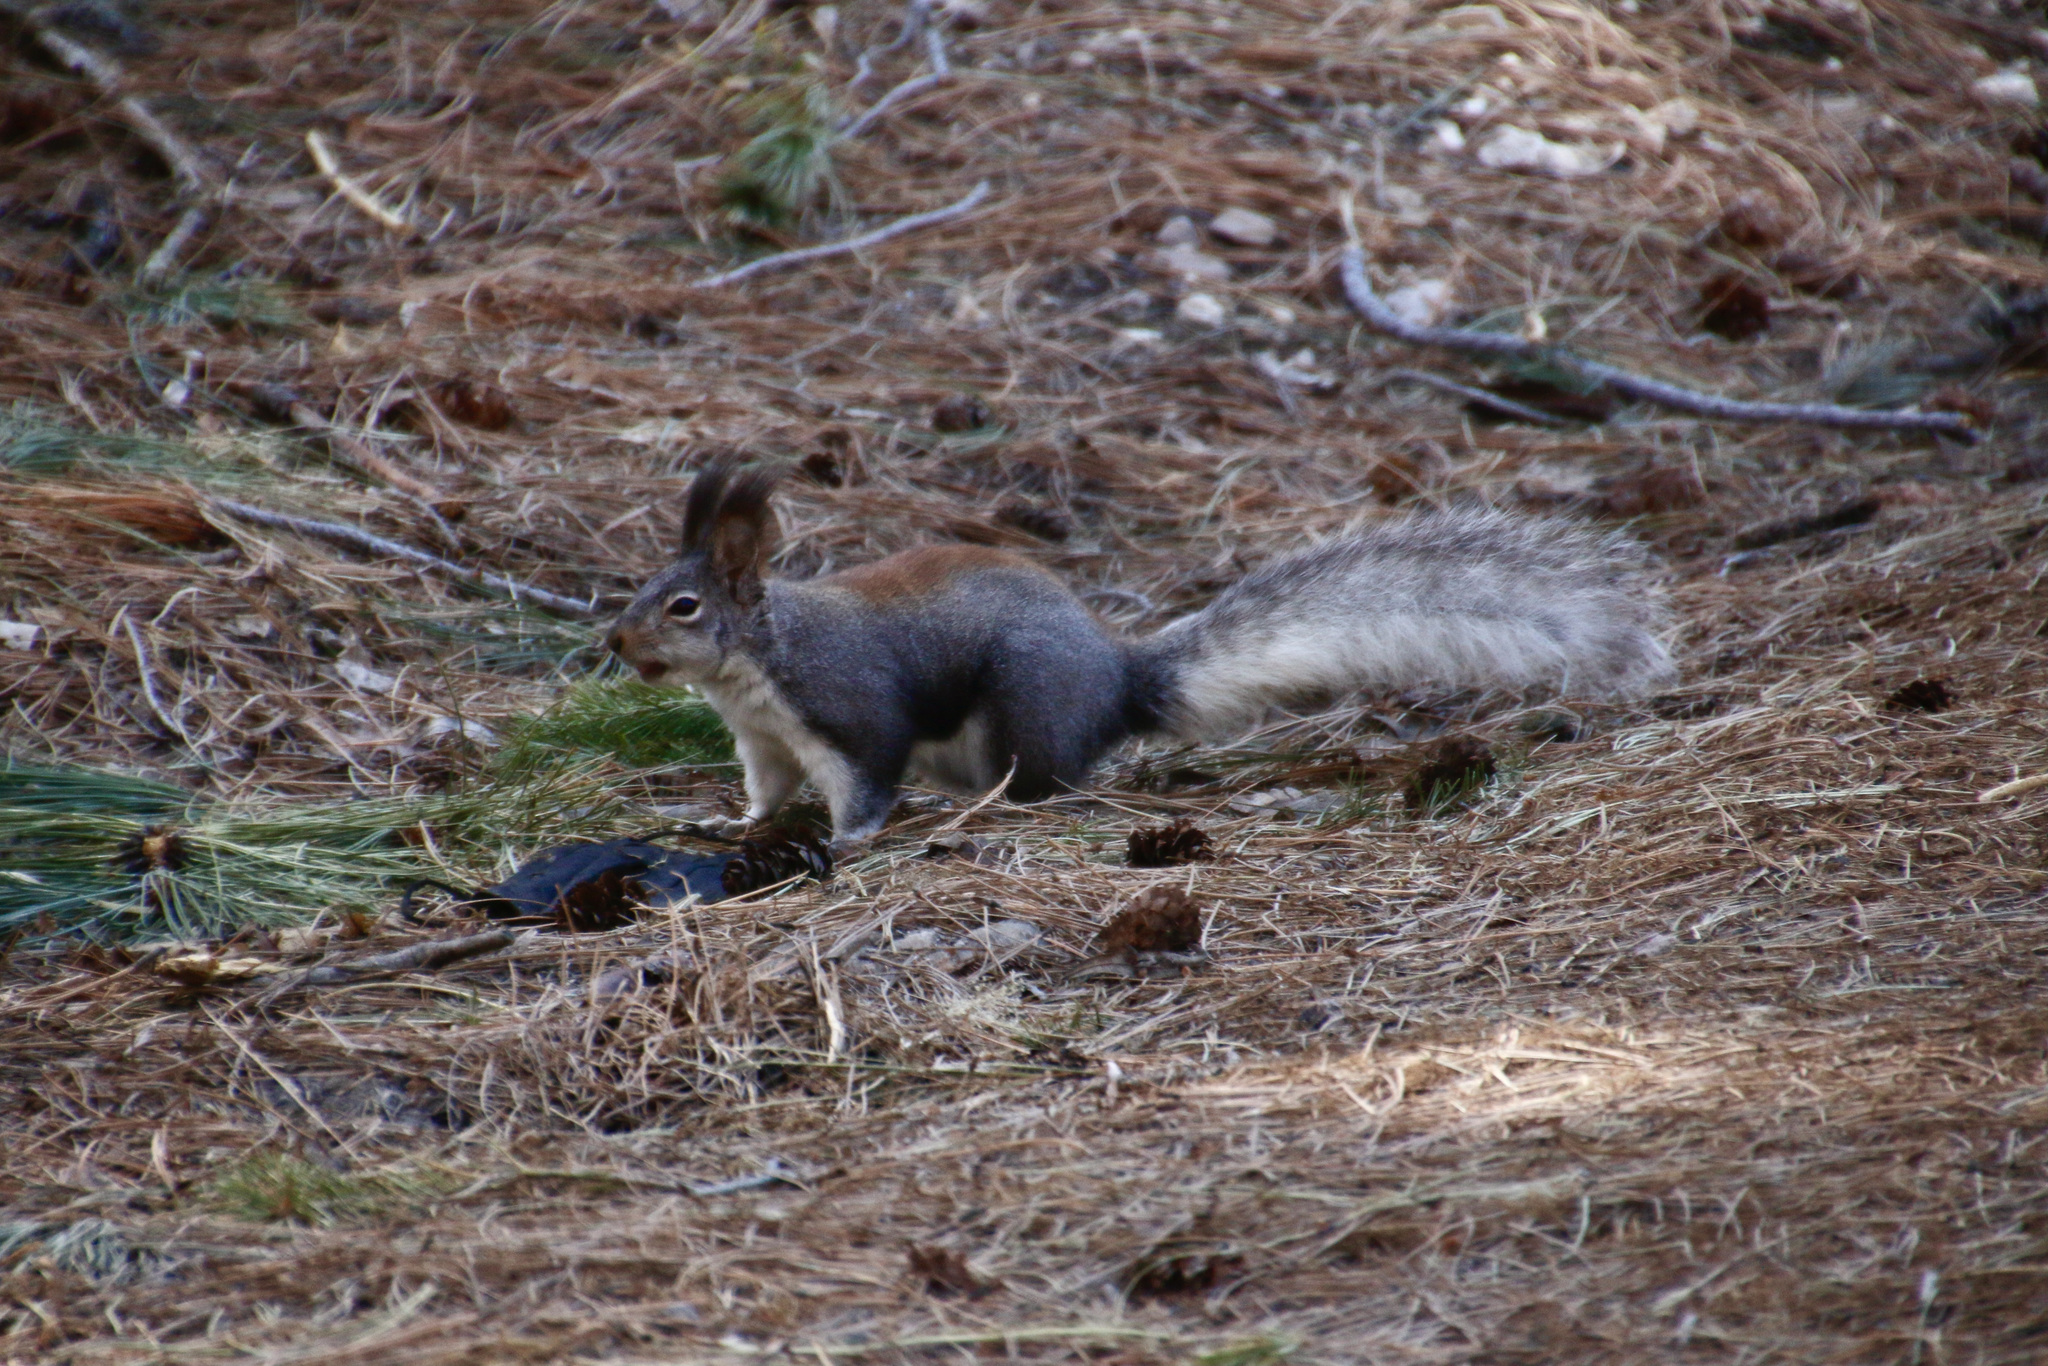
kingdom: Animalia
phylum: Chordata
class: Mammalia
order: Rodentia
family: Sciuridae
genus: Sciurus
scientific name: Sciurus aberti
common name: Abert's squirrel
